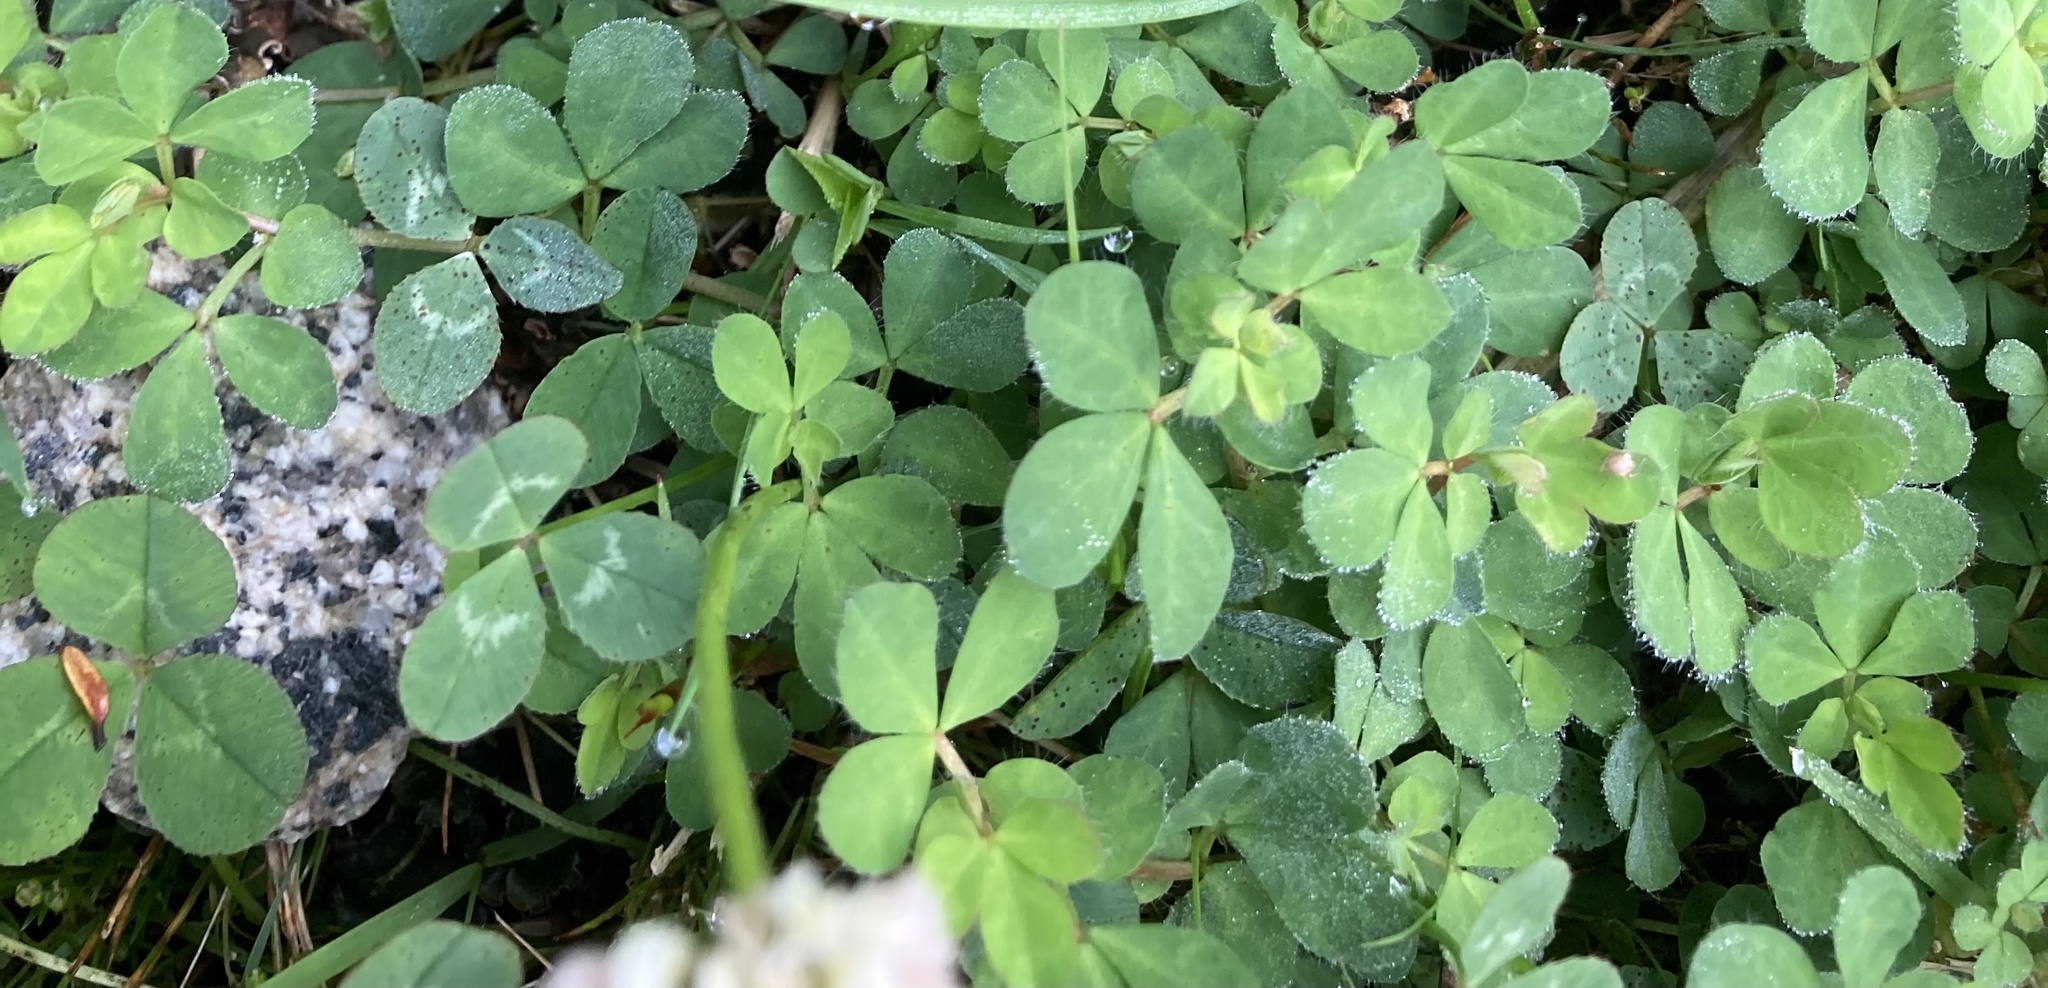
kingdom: Plantae
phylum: Tracheophyta
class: Magnoliopsida
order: Fabales
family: Fabaceae
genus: Trifolium
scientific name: Trifolium repens
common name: White clover
